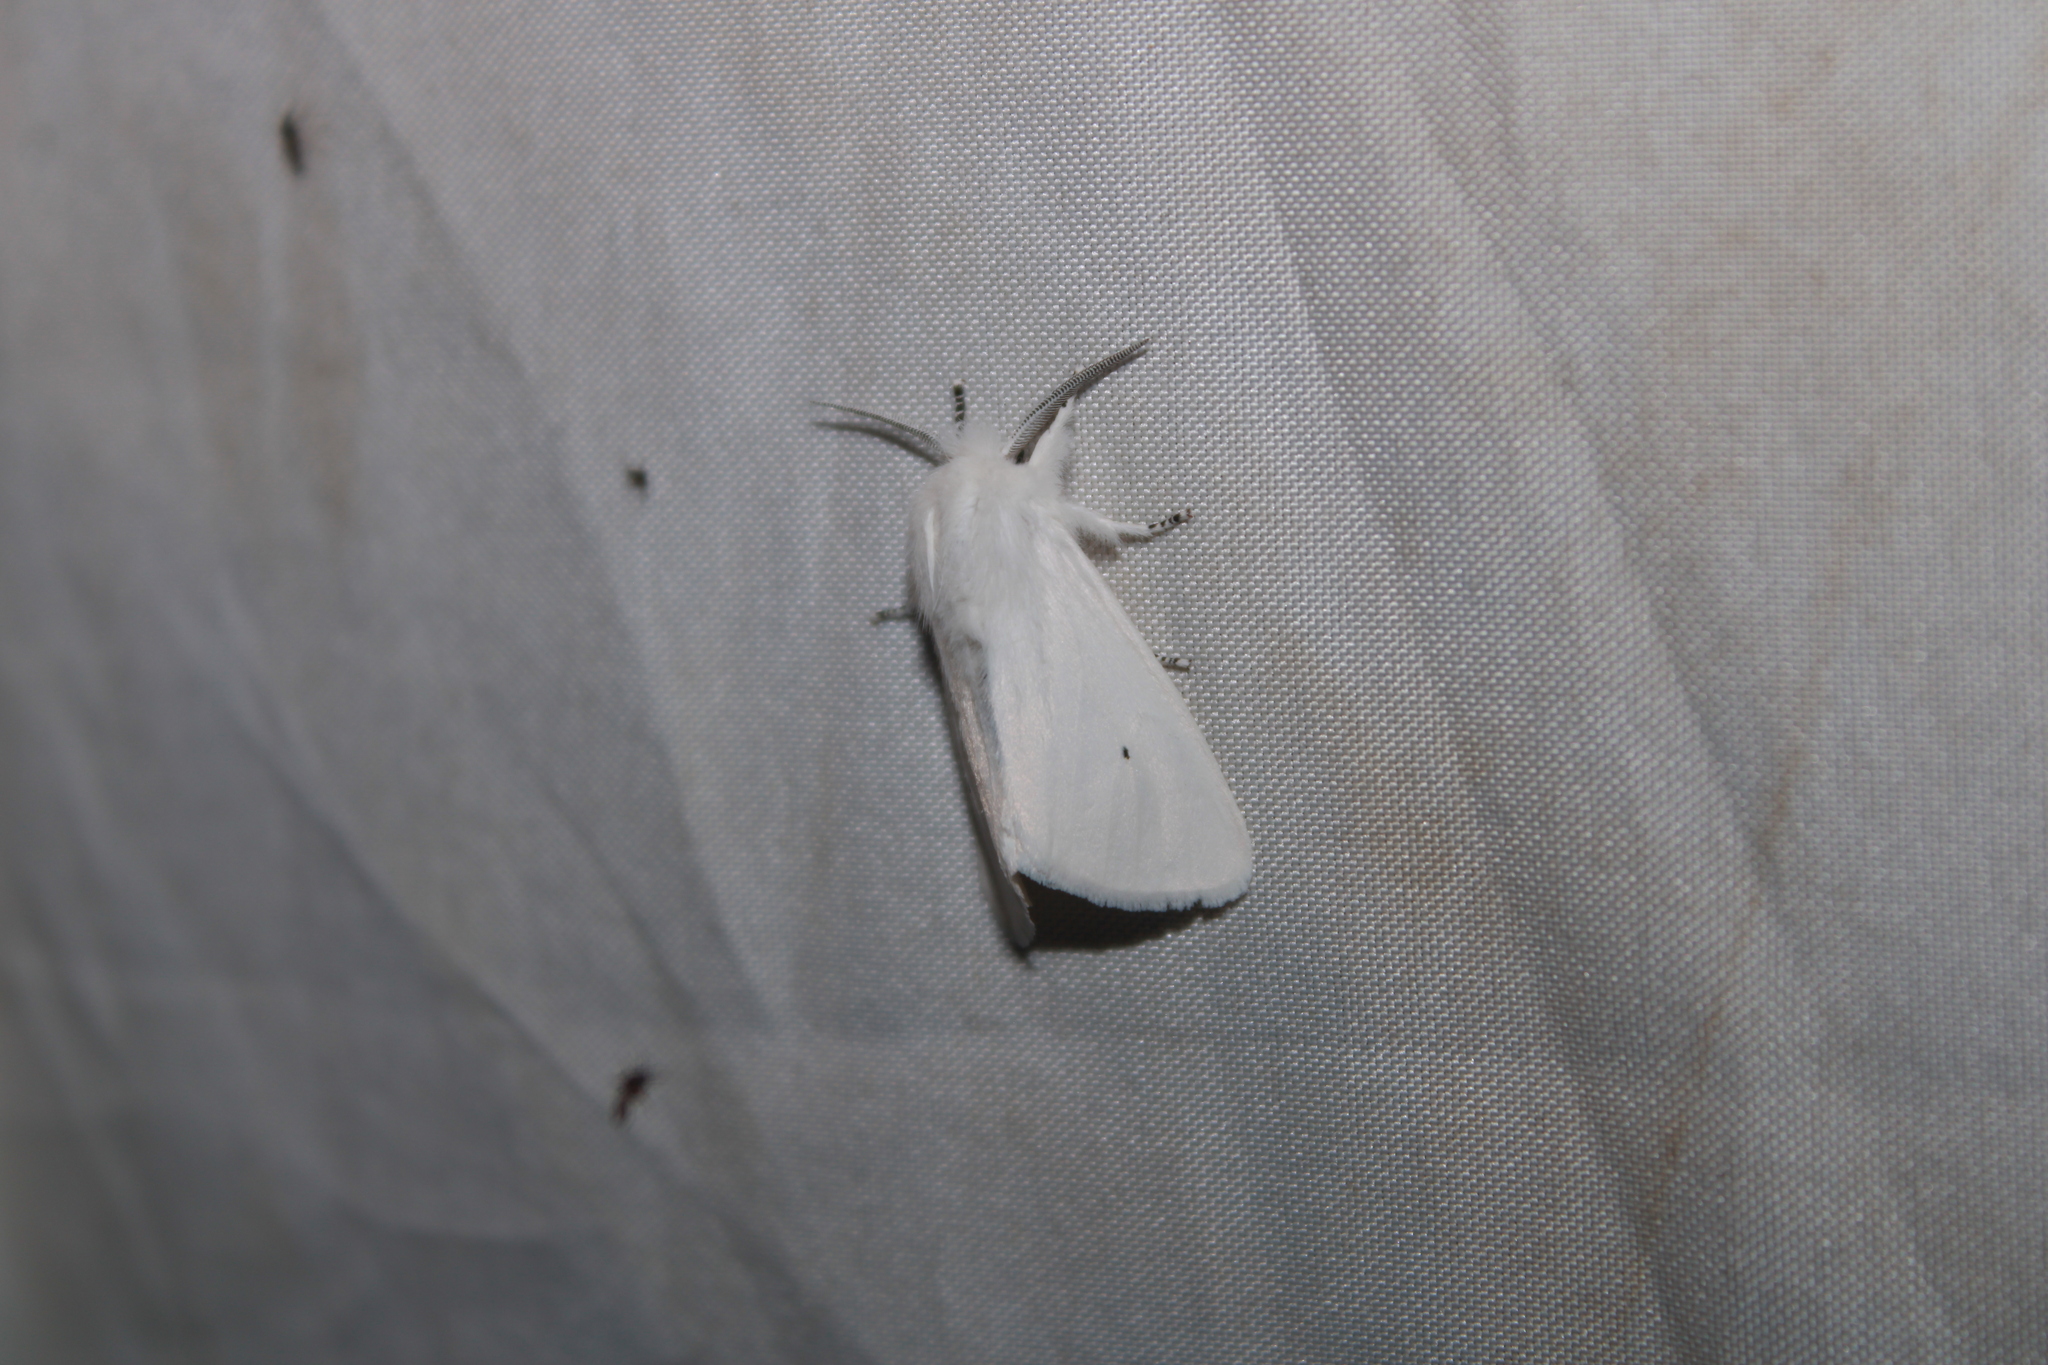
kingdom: Animalia
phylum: Arthropoda
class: Insecta
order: Lepidoptera
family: Erebidae
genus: Spilosoma
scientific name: Spilosoma virginica
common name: Virginia tiger moth
